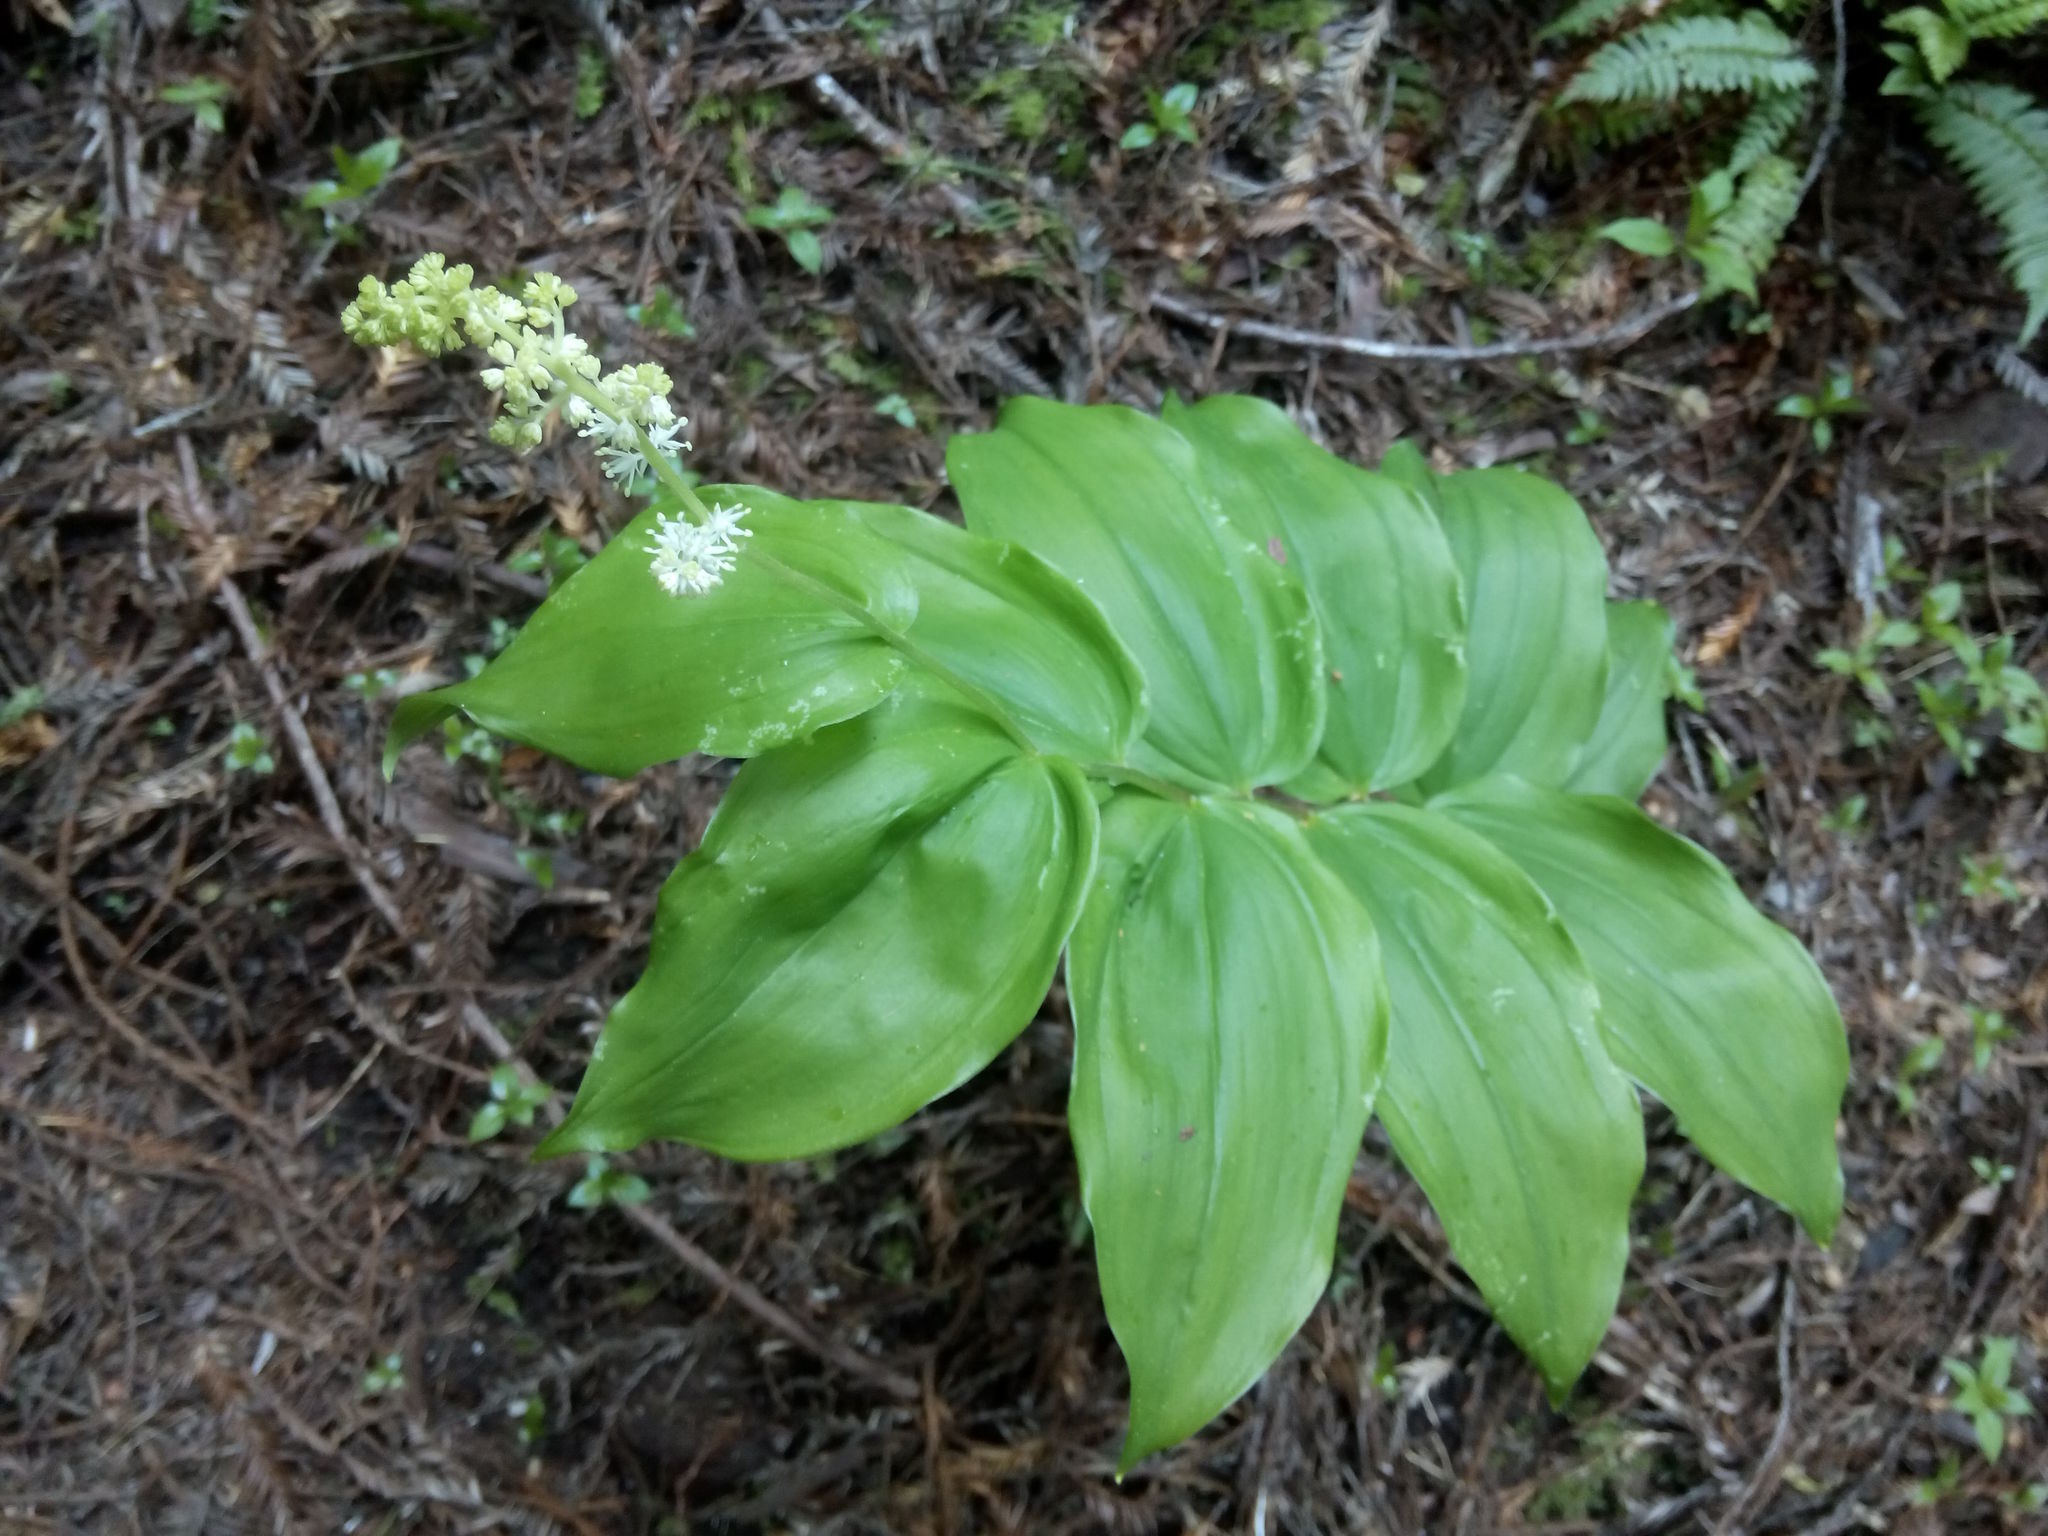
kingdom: Plantae
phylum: Tracheophyta
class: Liliopsida
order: Asparagales
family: Asparagaceae
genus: Maianthemum
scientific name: Maianthemum racemosum
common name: False spikenard
